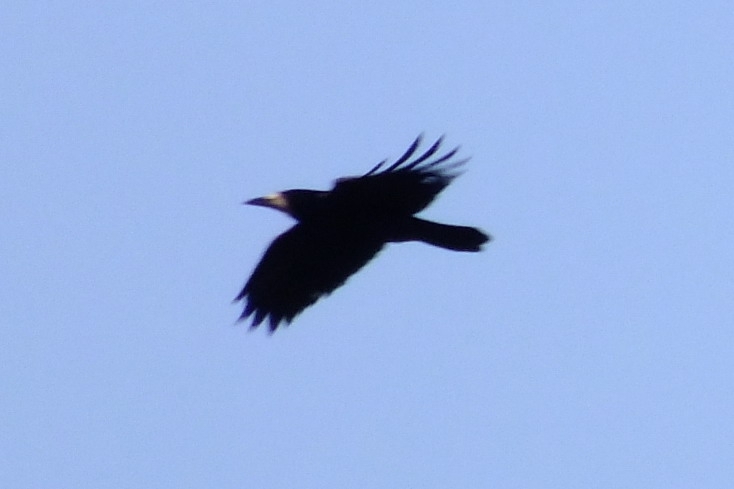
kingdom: Animalia
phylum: Chordata
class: Aves
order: Passeriformes
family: Corvidae
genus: Corvus
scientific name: Corvus frugilegus
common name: Rook
